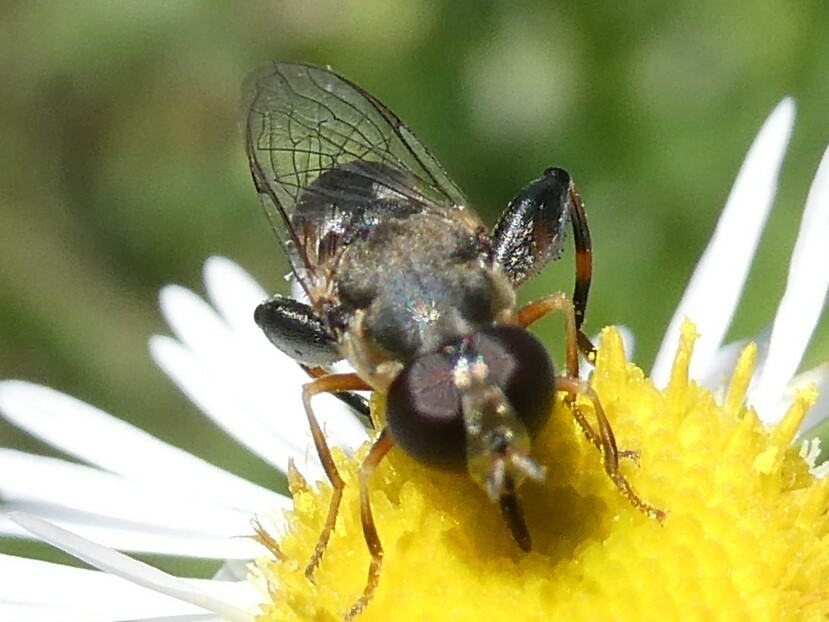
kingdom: Animalia
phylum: Arthropoda
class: Insecta
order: Diptera
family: Syrphidae
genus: Syritta
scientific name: Syritta pipiens
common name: Hover fly
